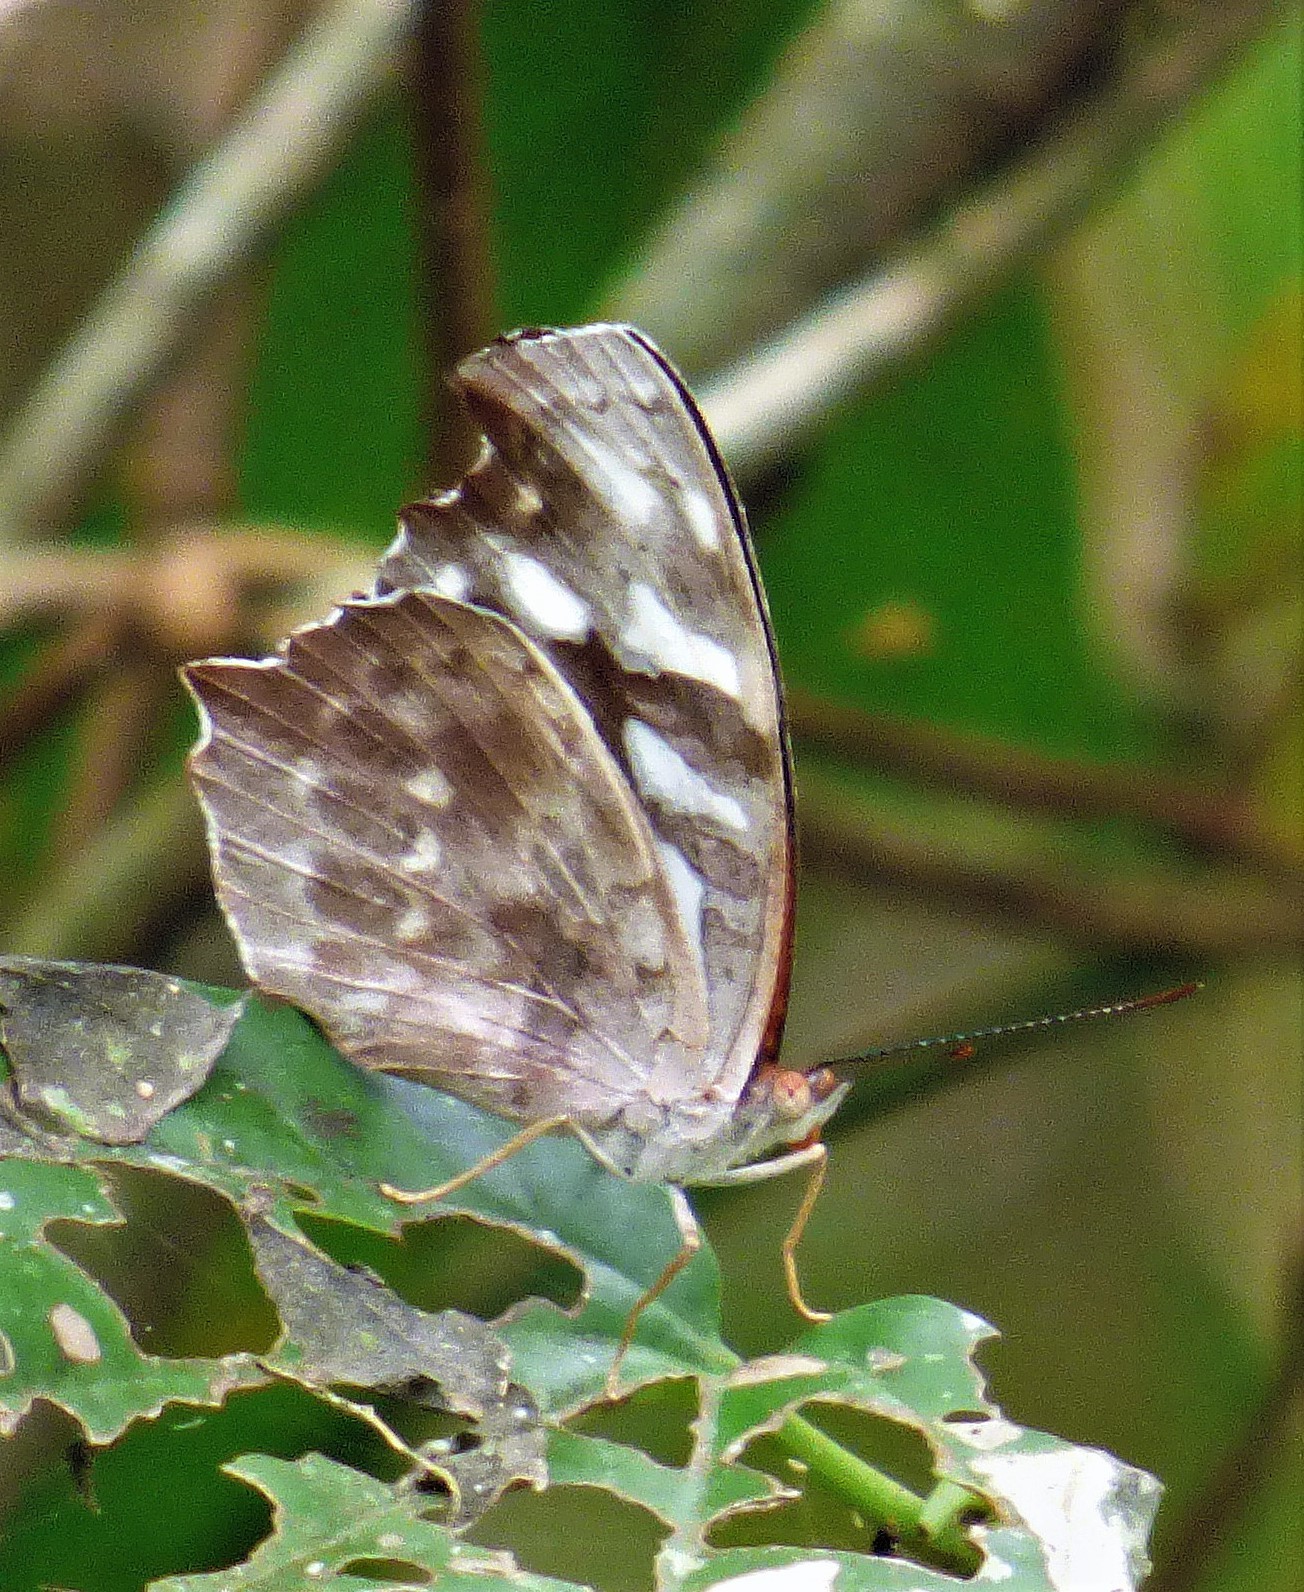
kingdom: Animalia
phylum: Arthropoda
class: Insecta
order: Lepidoptera
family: Nymphalidae
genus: Myscelia
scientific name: Myscelia orsis
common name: Orsis bluewing
